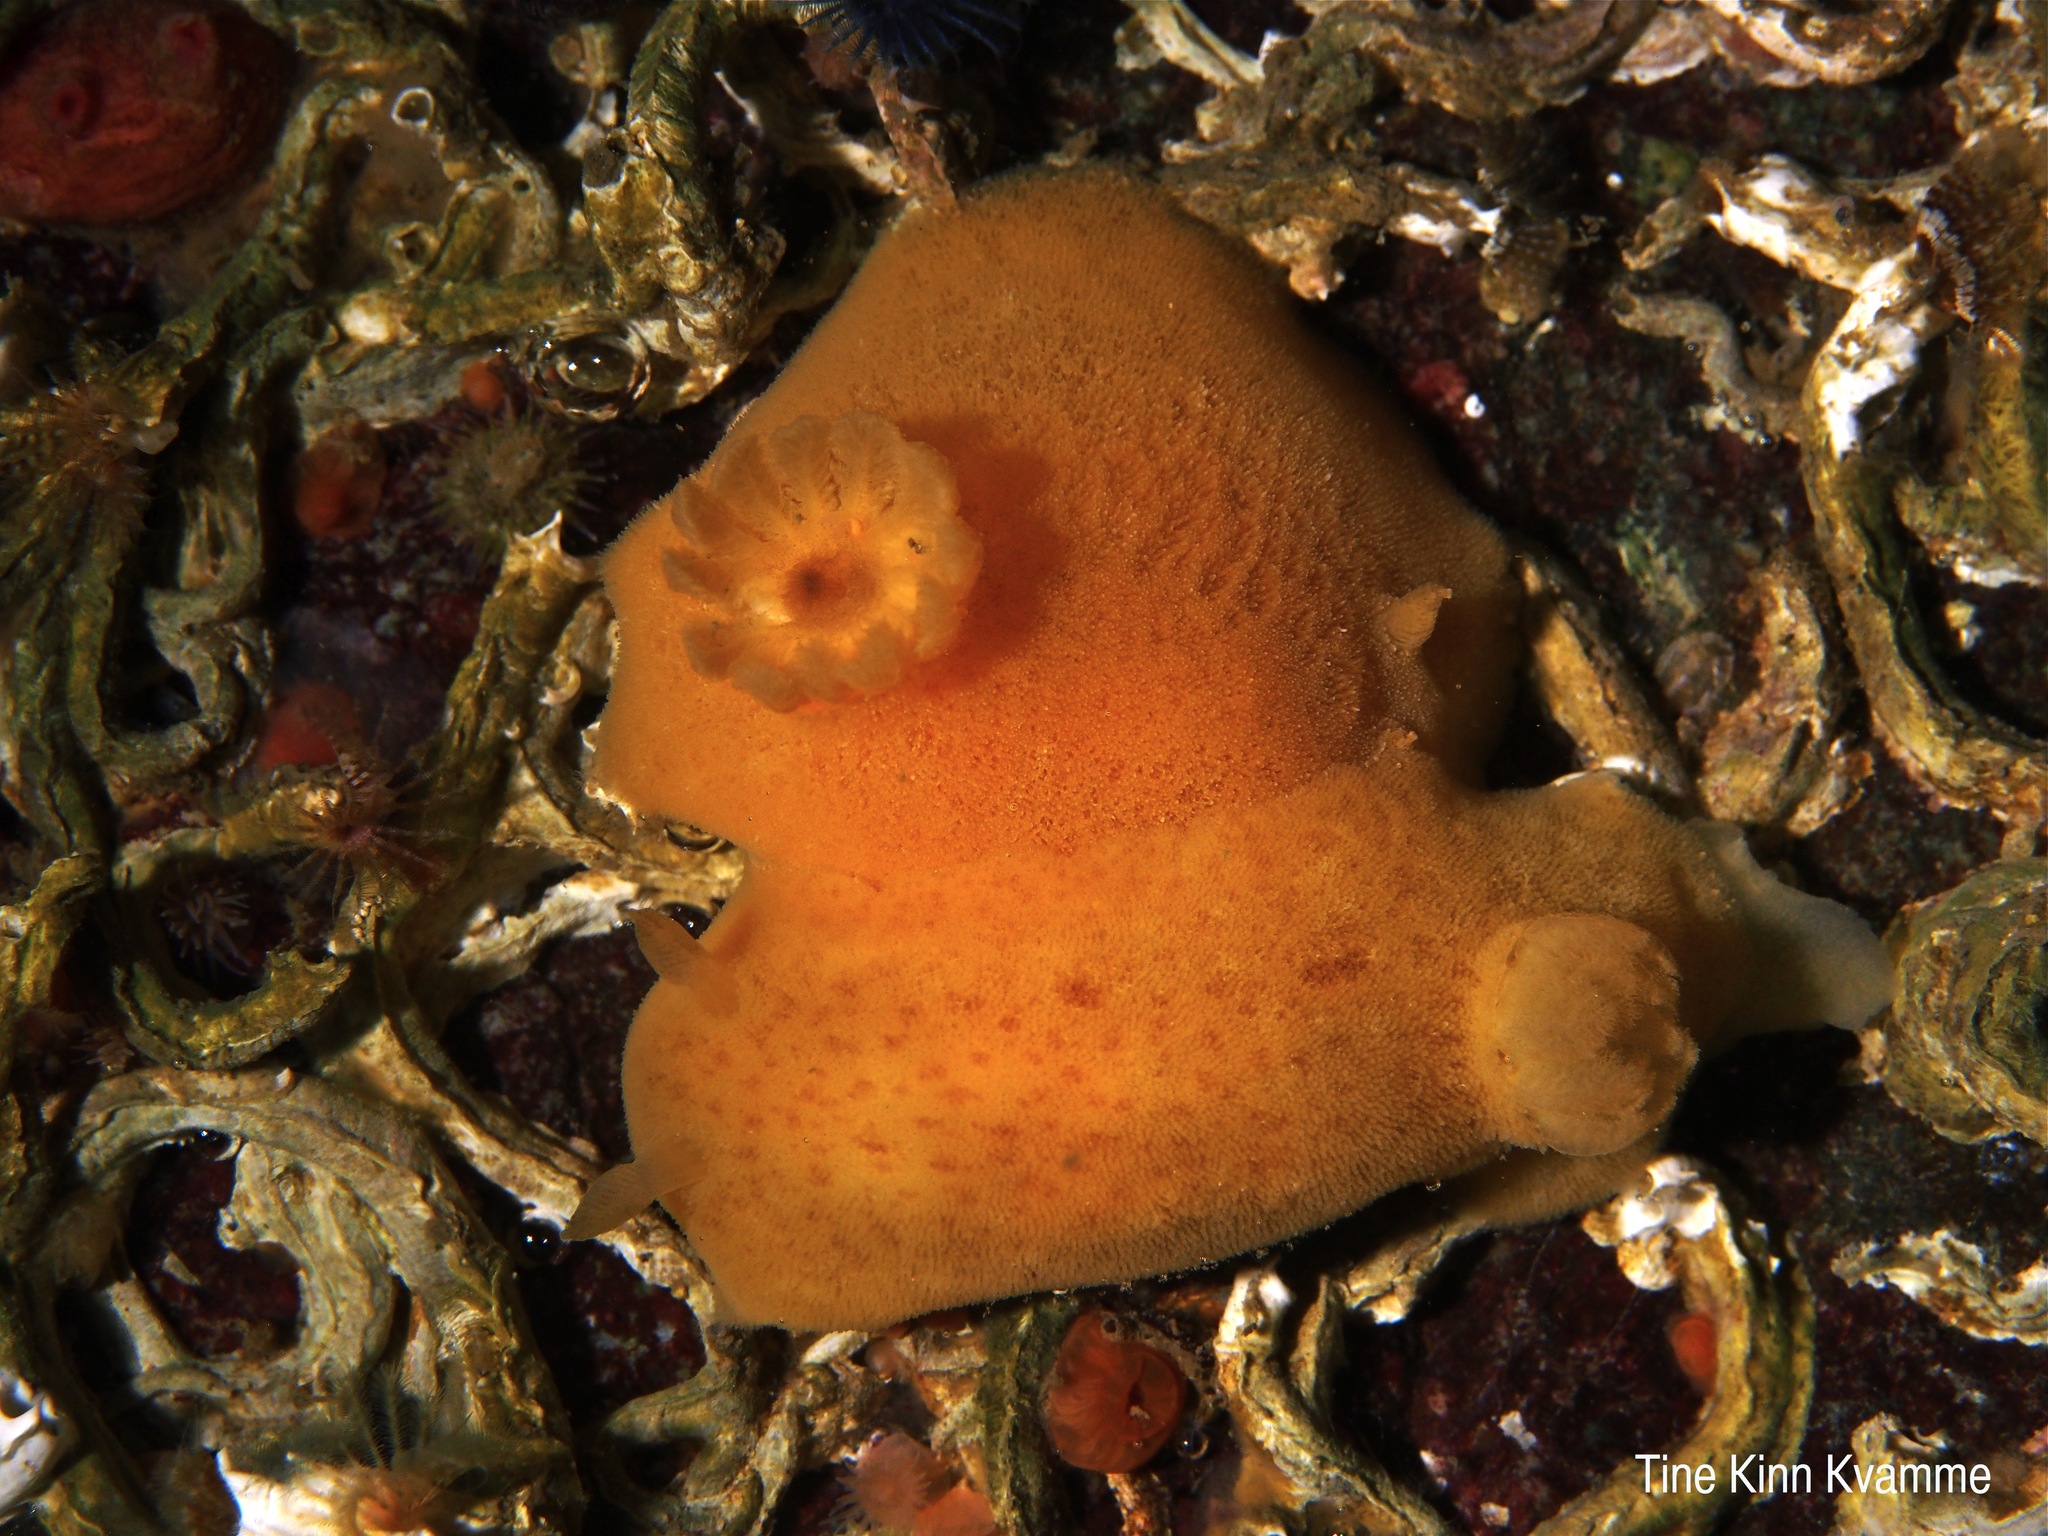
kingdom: Animalia
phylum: Mollusca
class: Gastropoda
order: Nudibranchia
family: Discodorididae
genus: Jorunna
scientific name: Jorunna tomentosa
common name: Grey sea slug
